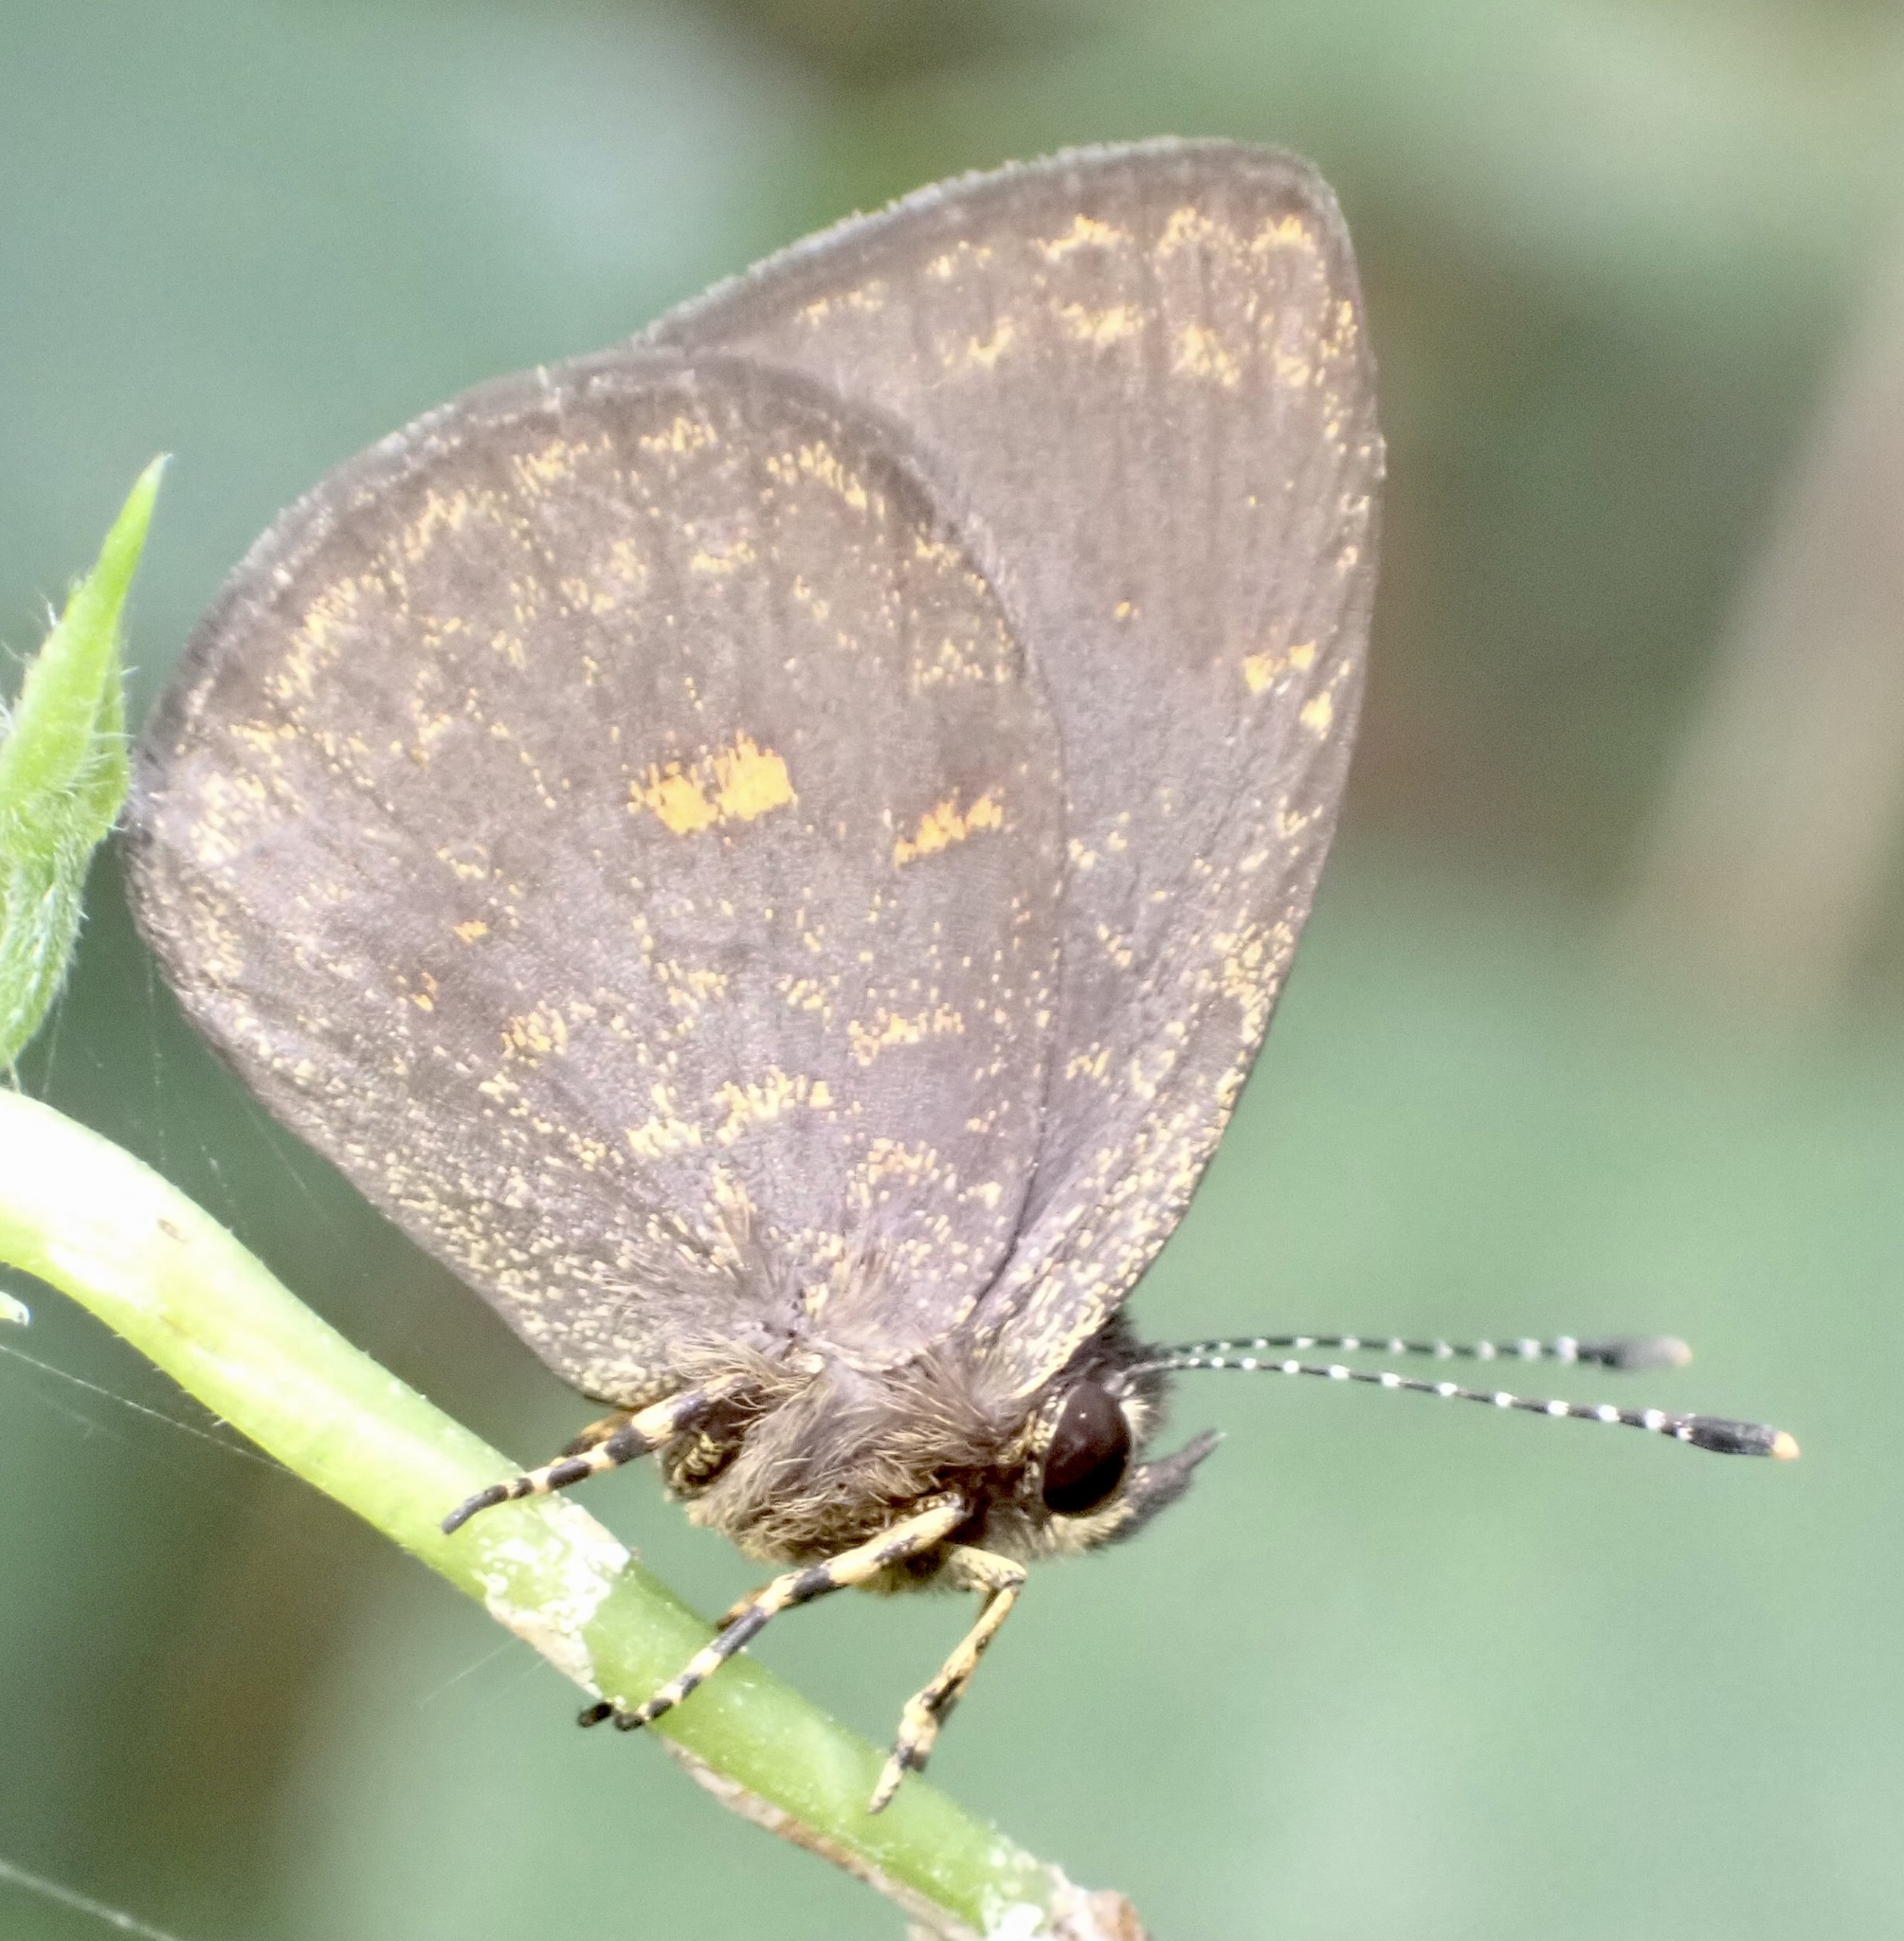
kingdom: Animalia
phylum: Arthropoda
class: Insecta
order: Lepidoptera
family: Lycaenidae
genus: Epitolina
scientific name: Epitolina dispar
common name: Common epitolina
